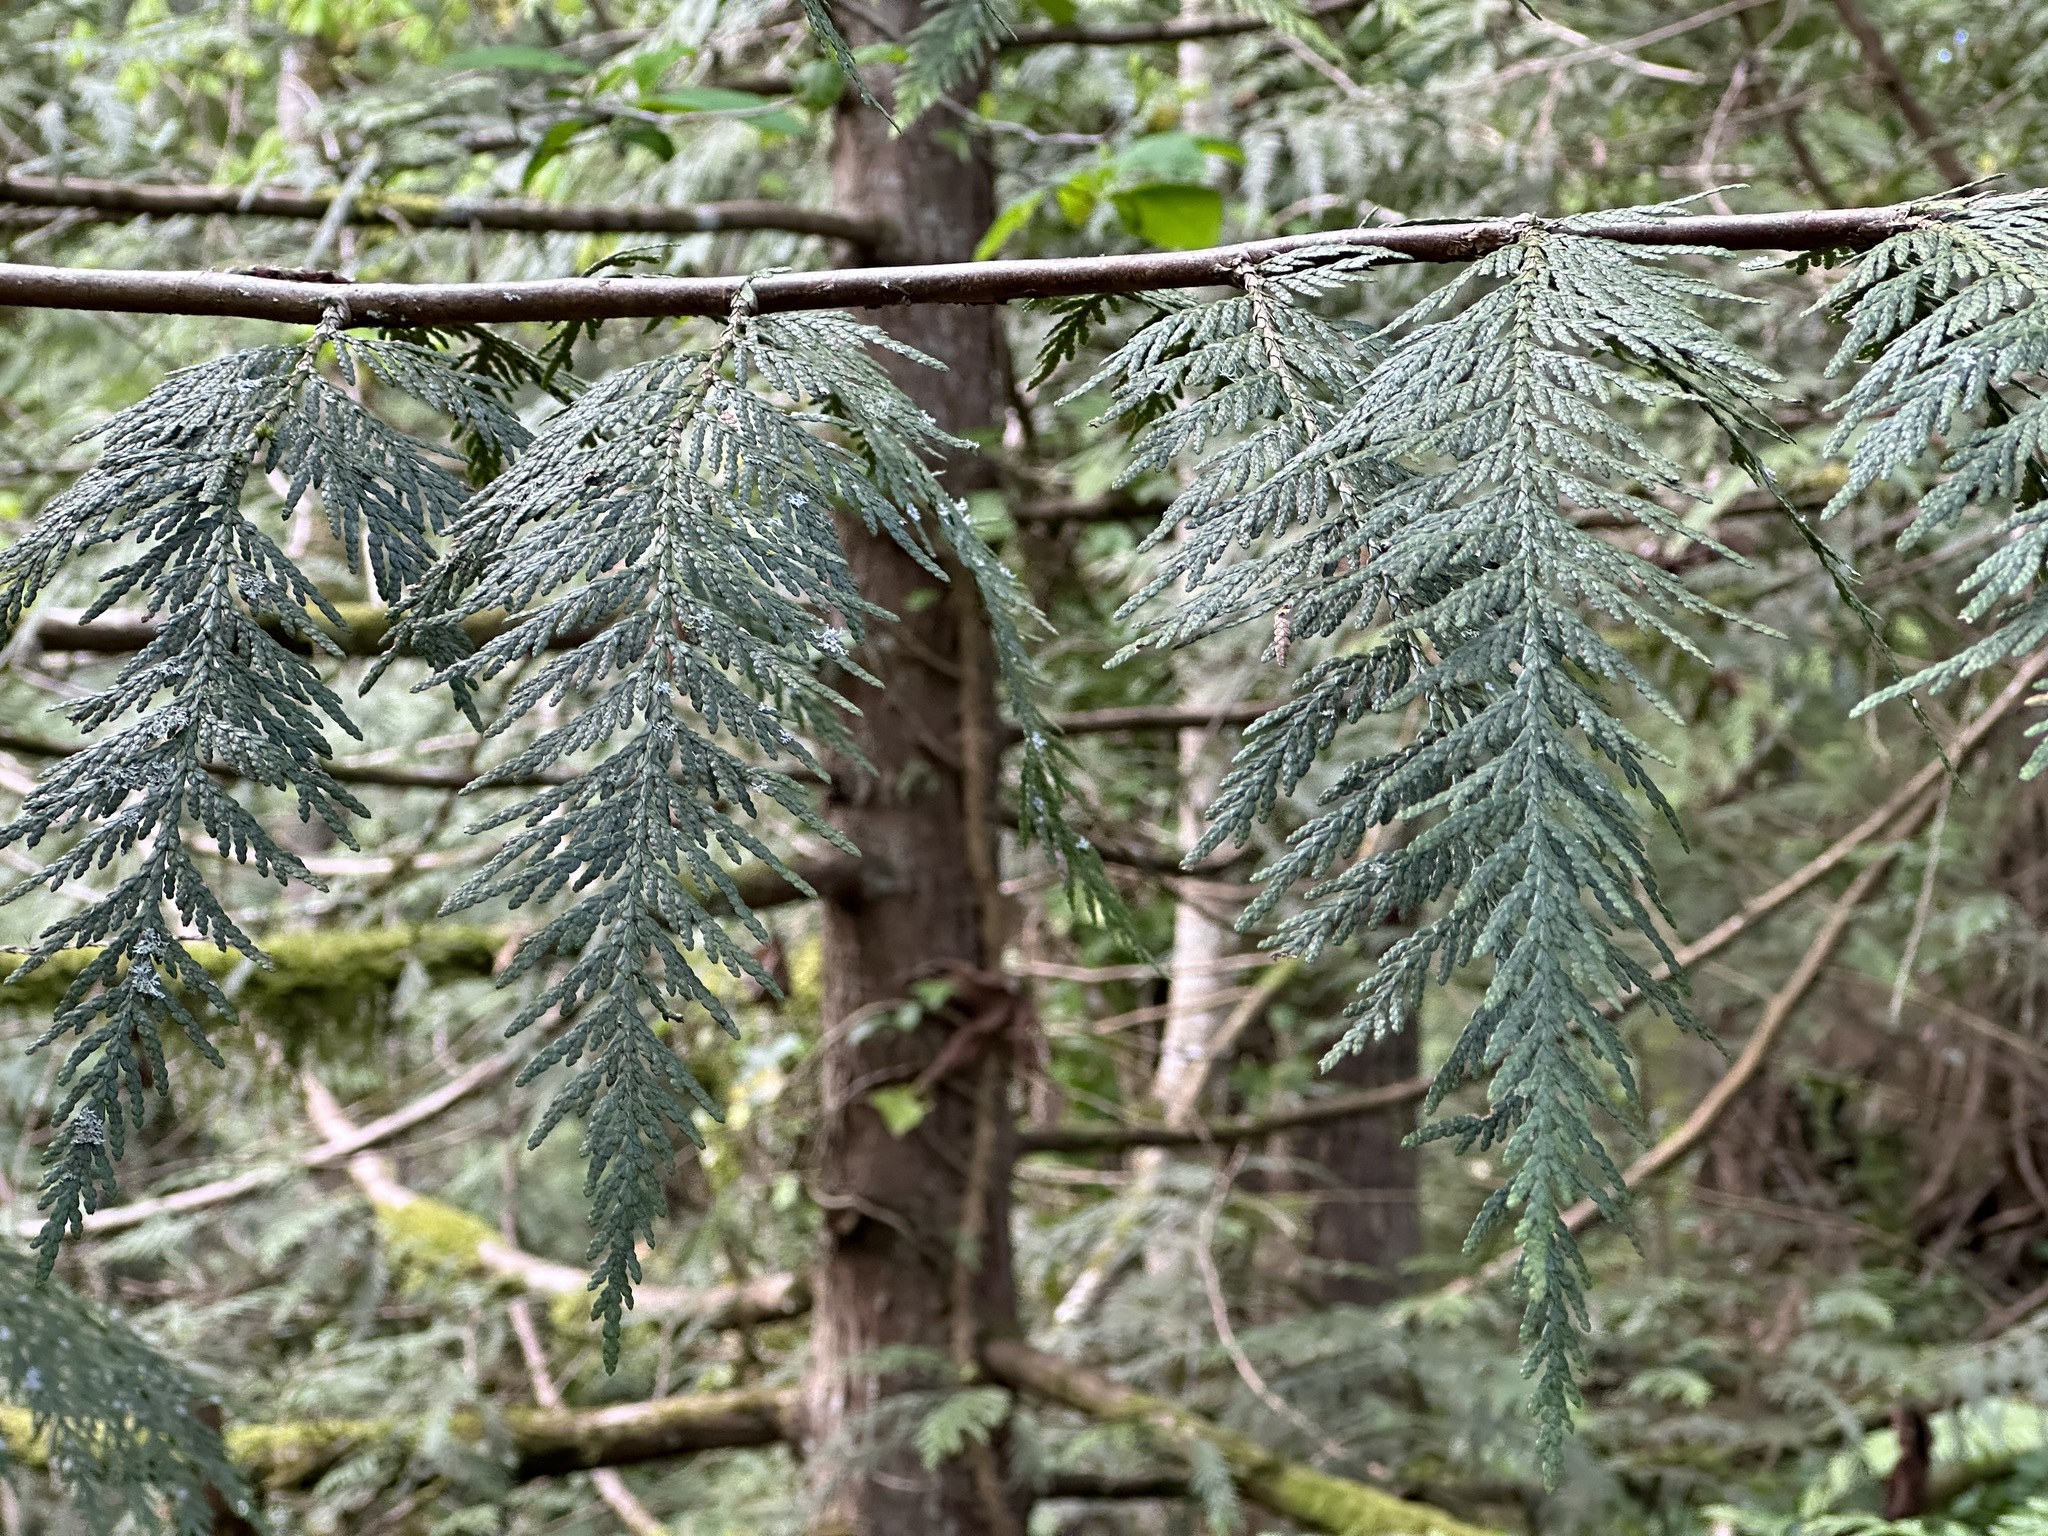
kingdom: Plantae
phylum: Tracheophyta
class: Pinopsida
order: Pinales
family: Cupressaceae
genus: Thuja
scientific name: Thuja plicata
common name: Western red-cedar
